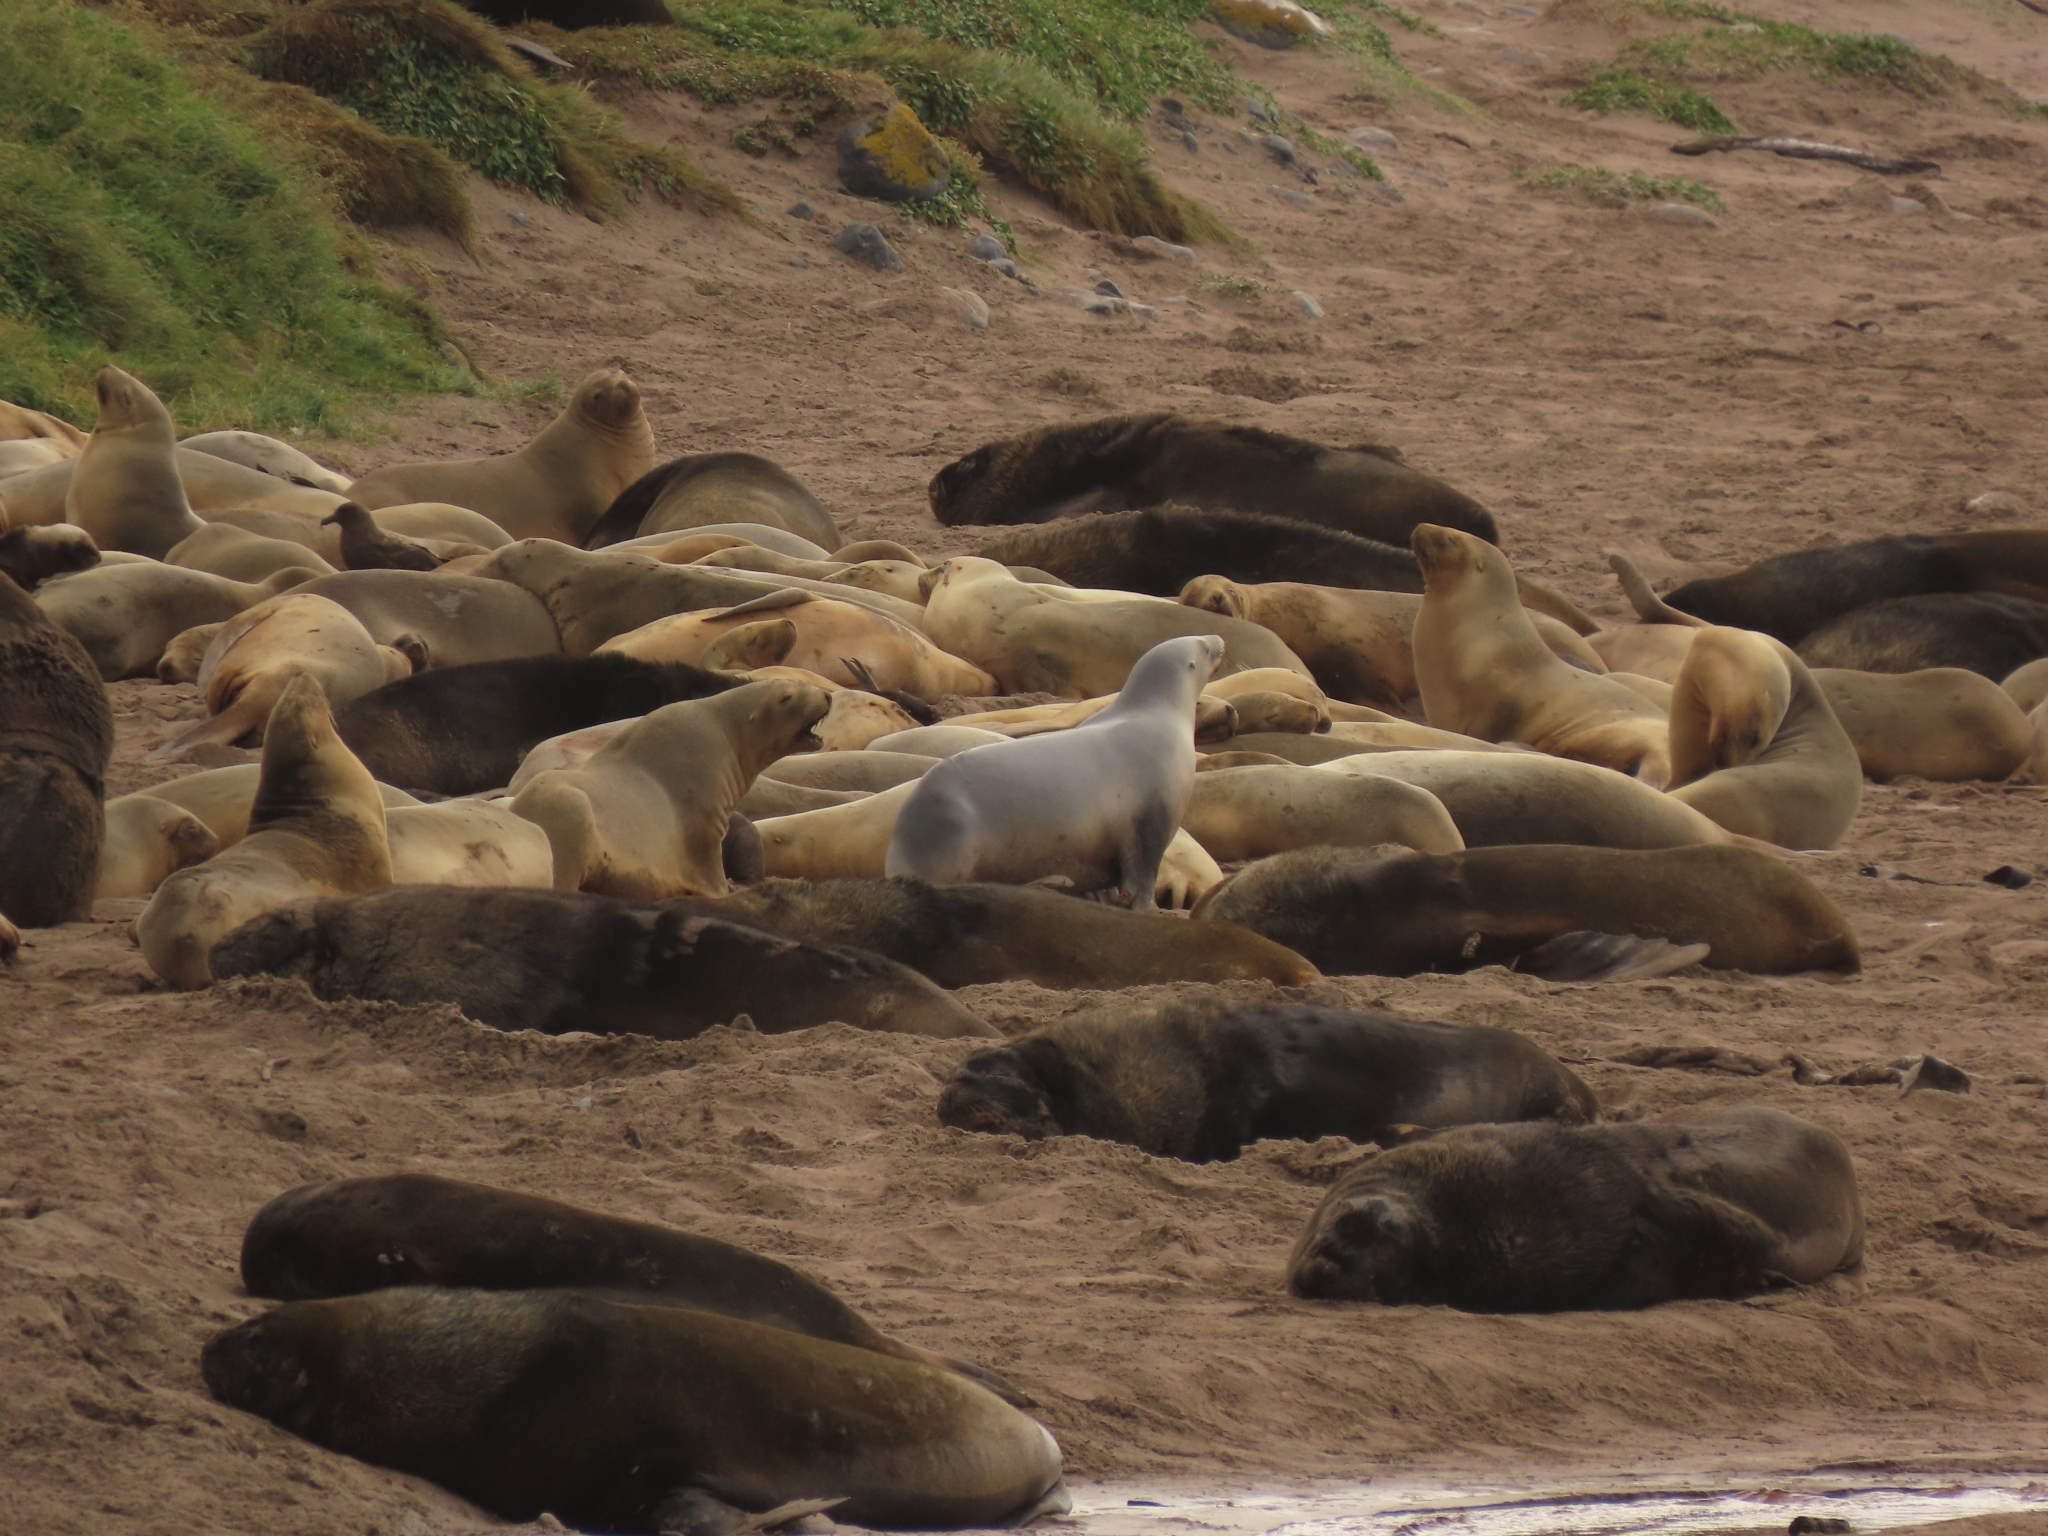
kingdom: Animalia
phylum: Chordata
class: Mammalia
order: Carnivora
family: Otariidae
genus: Phocarctos
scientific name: Phocarctos hookeri
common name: New zealand sea lion
